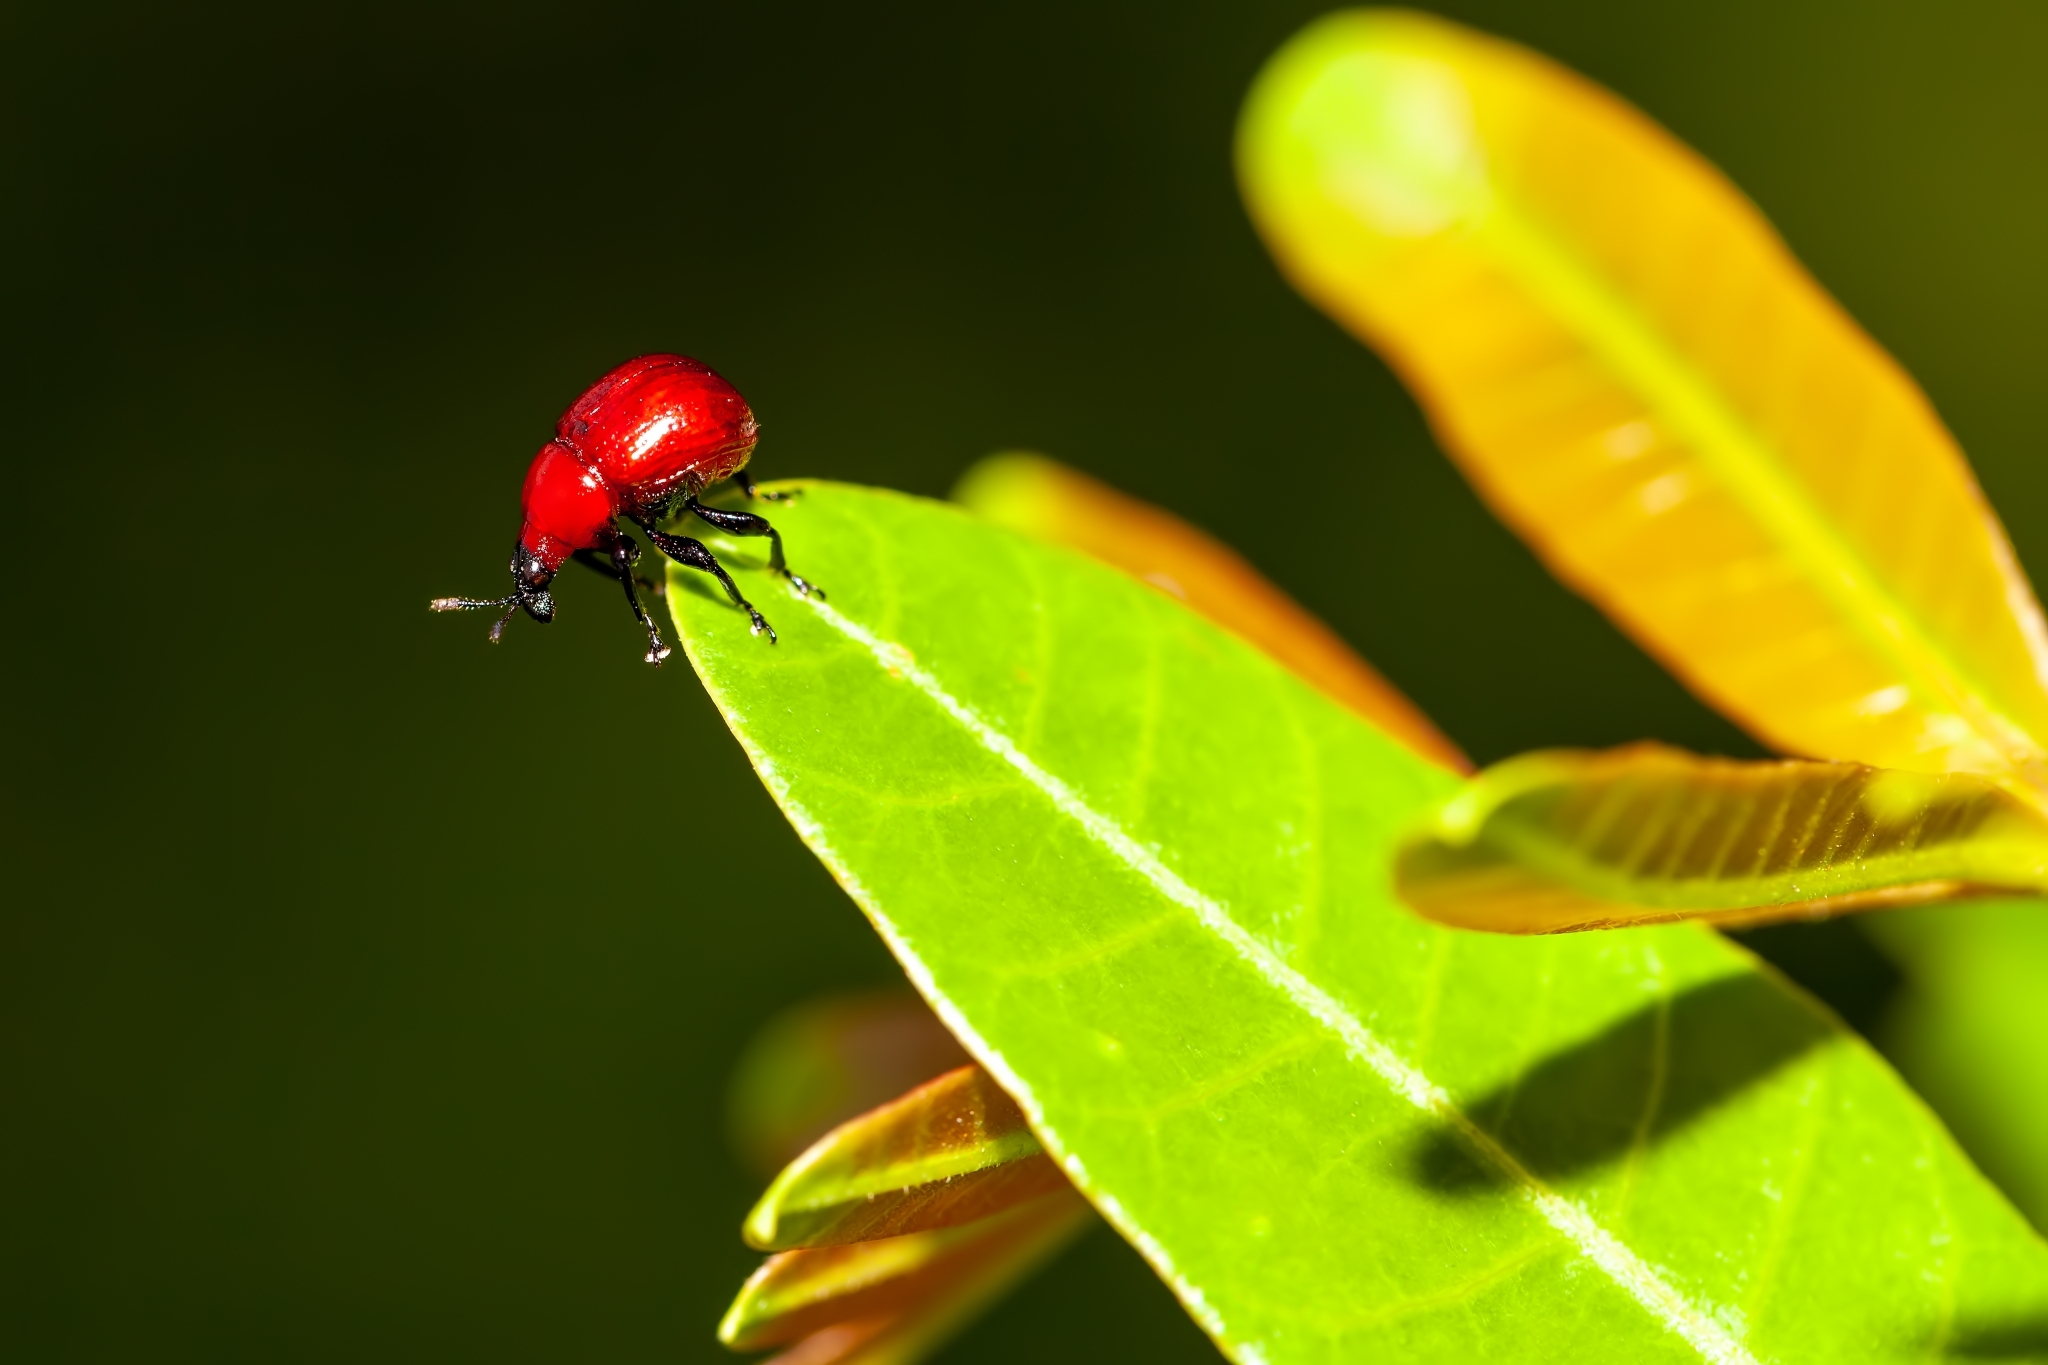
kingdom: Animalia
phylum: Arthropoda
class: Insecta
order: Coleoptera
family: Attelabidae
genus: Synolabus
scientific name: Synolabus nigripes
